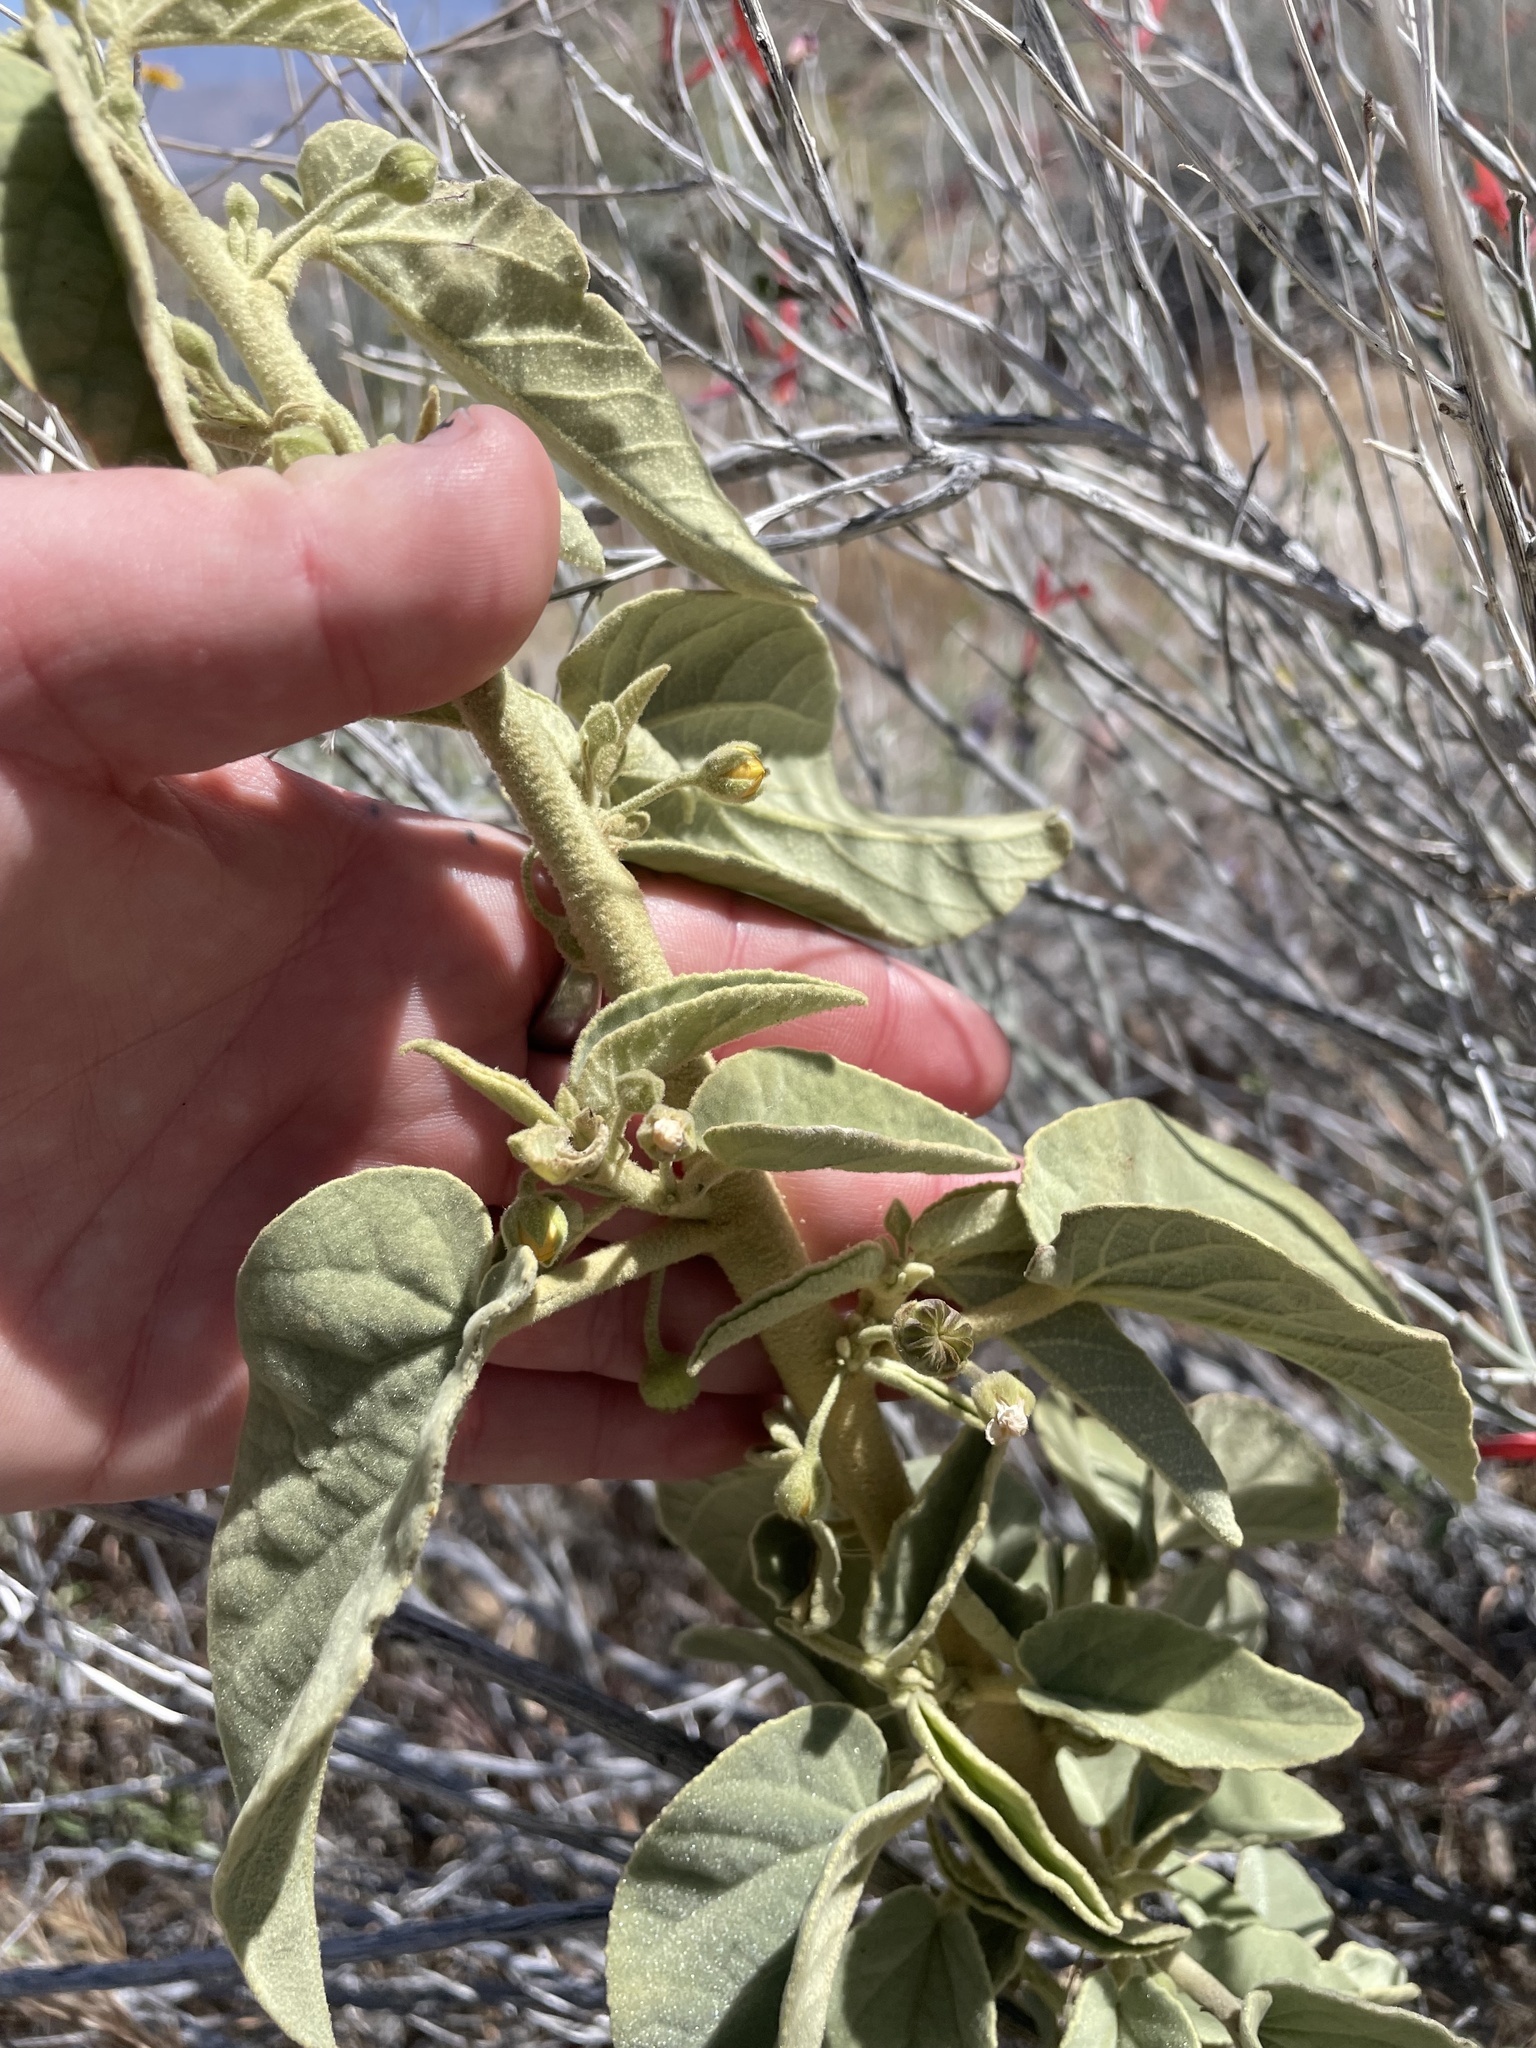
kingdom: Plantae
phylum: Tracheophyta
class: Magnoliopsida
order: Malvales
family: Malvaceae
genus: Horsfordia
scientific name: Horsfordia newberryi
